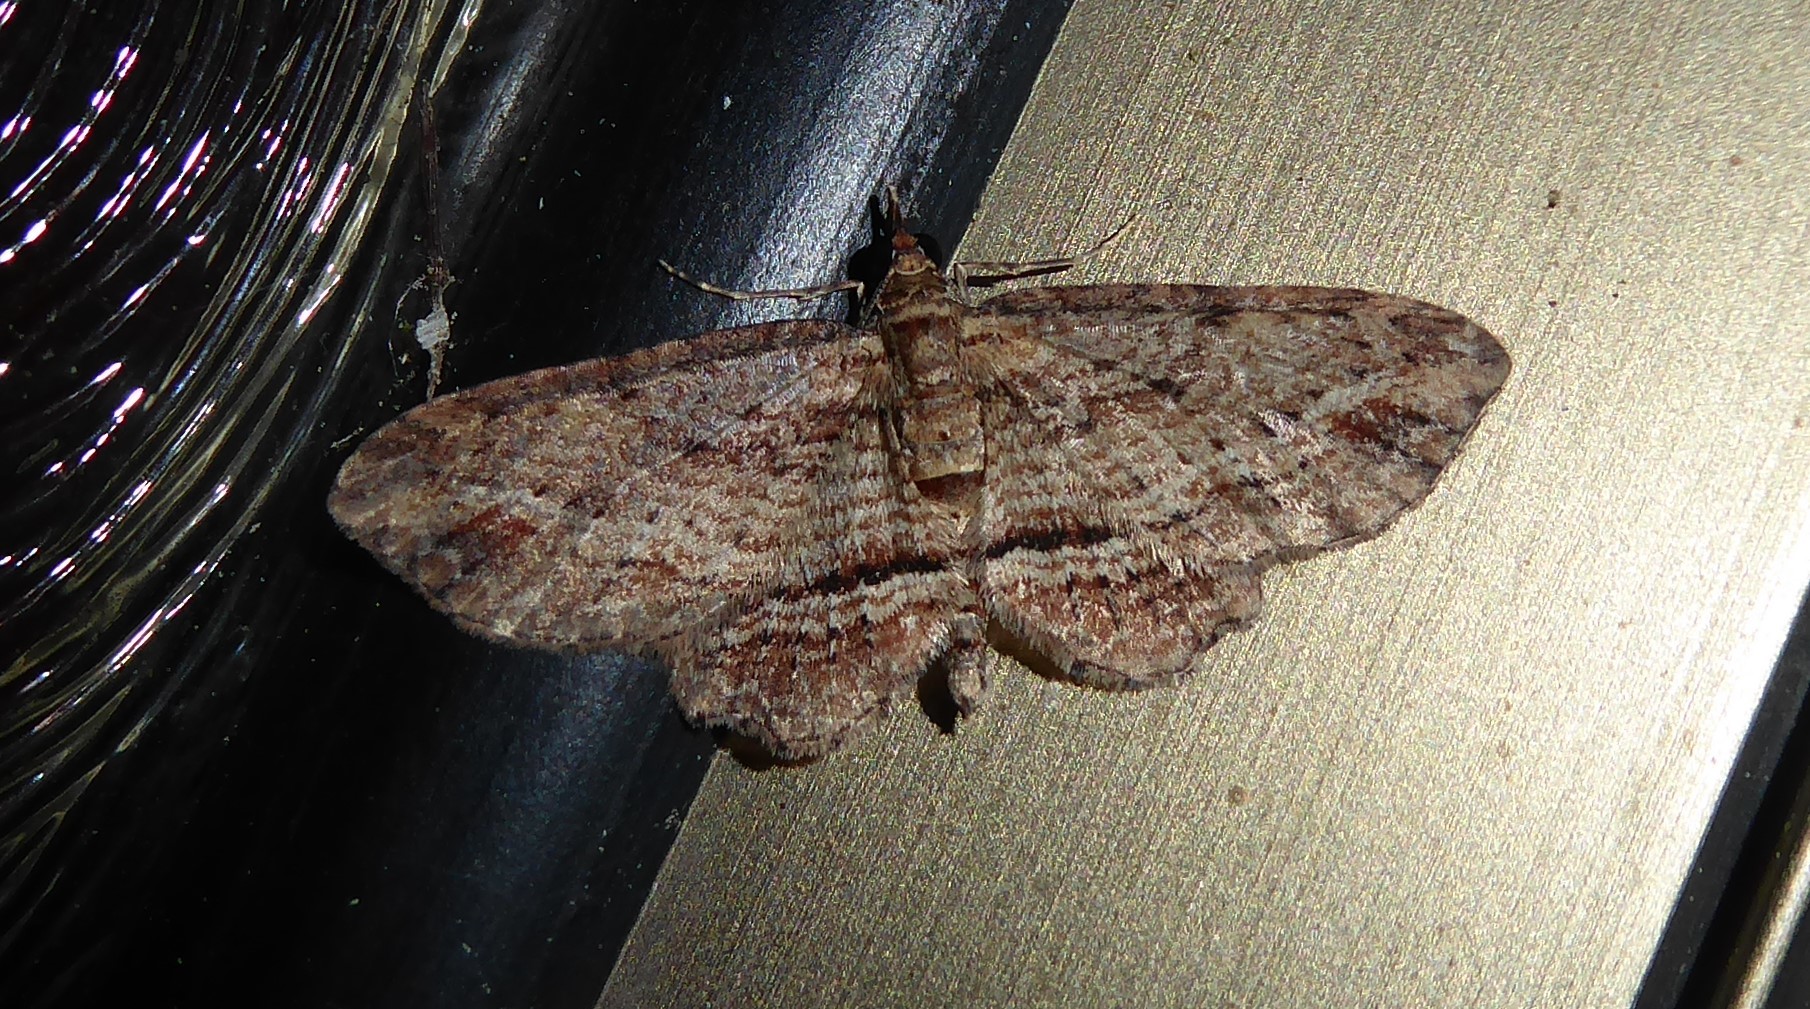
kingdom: Animalia
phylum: Arthropoda
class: Insecta
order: Lepidoptera
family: Geometridae
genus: Chloroclystis
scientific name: Chloroclystis filata
